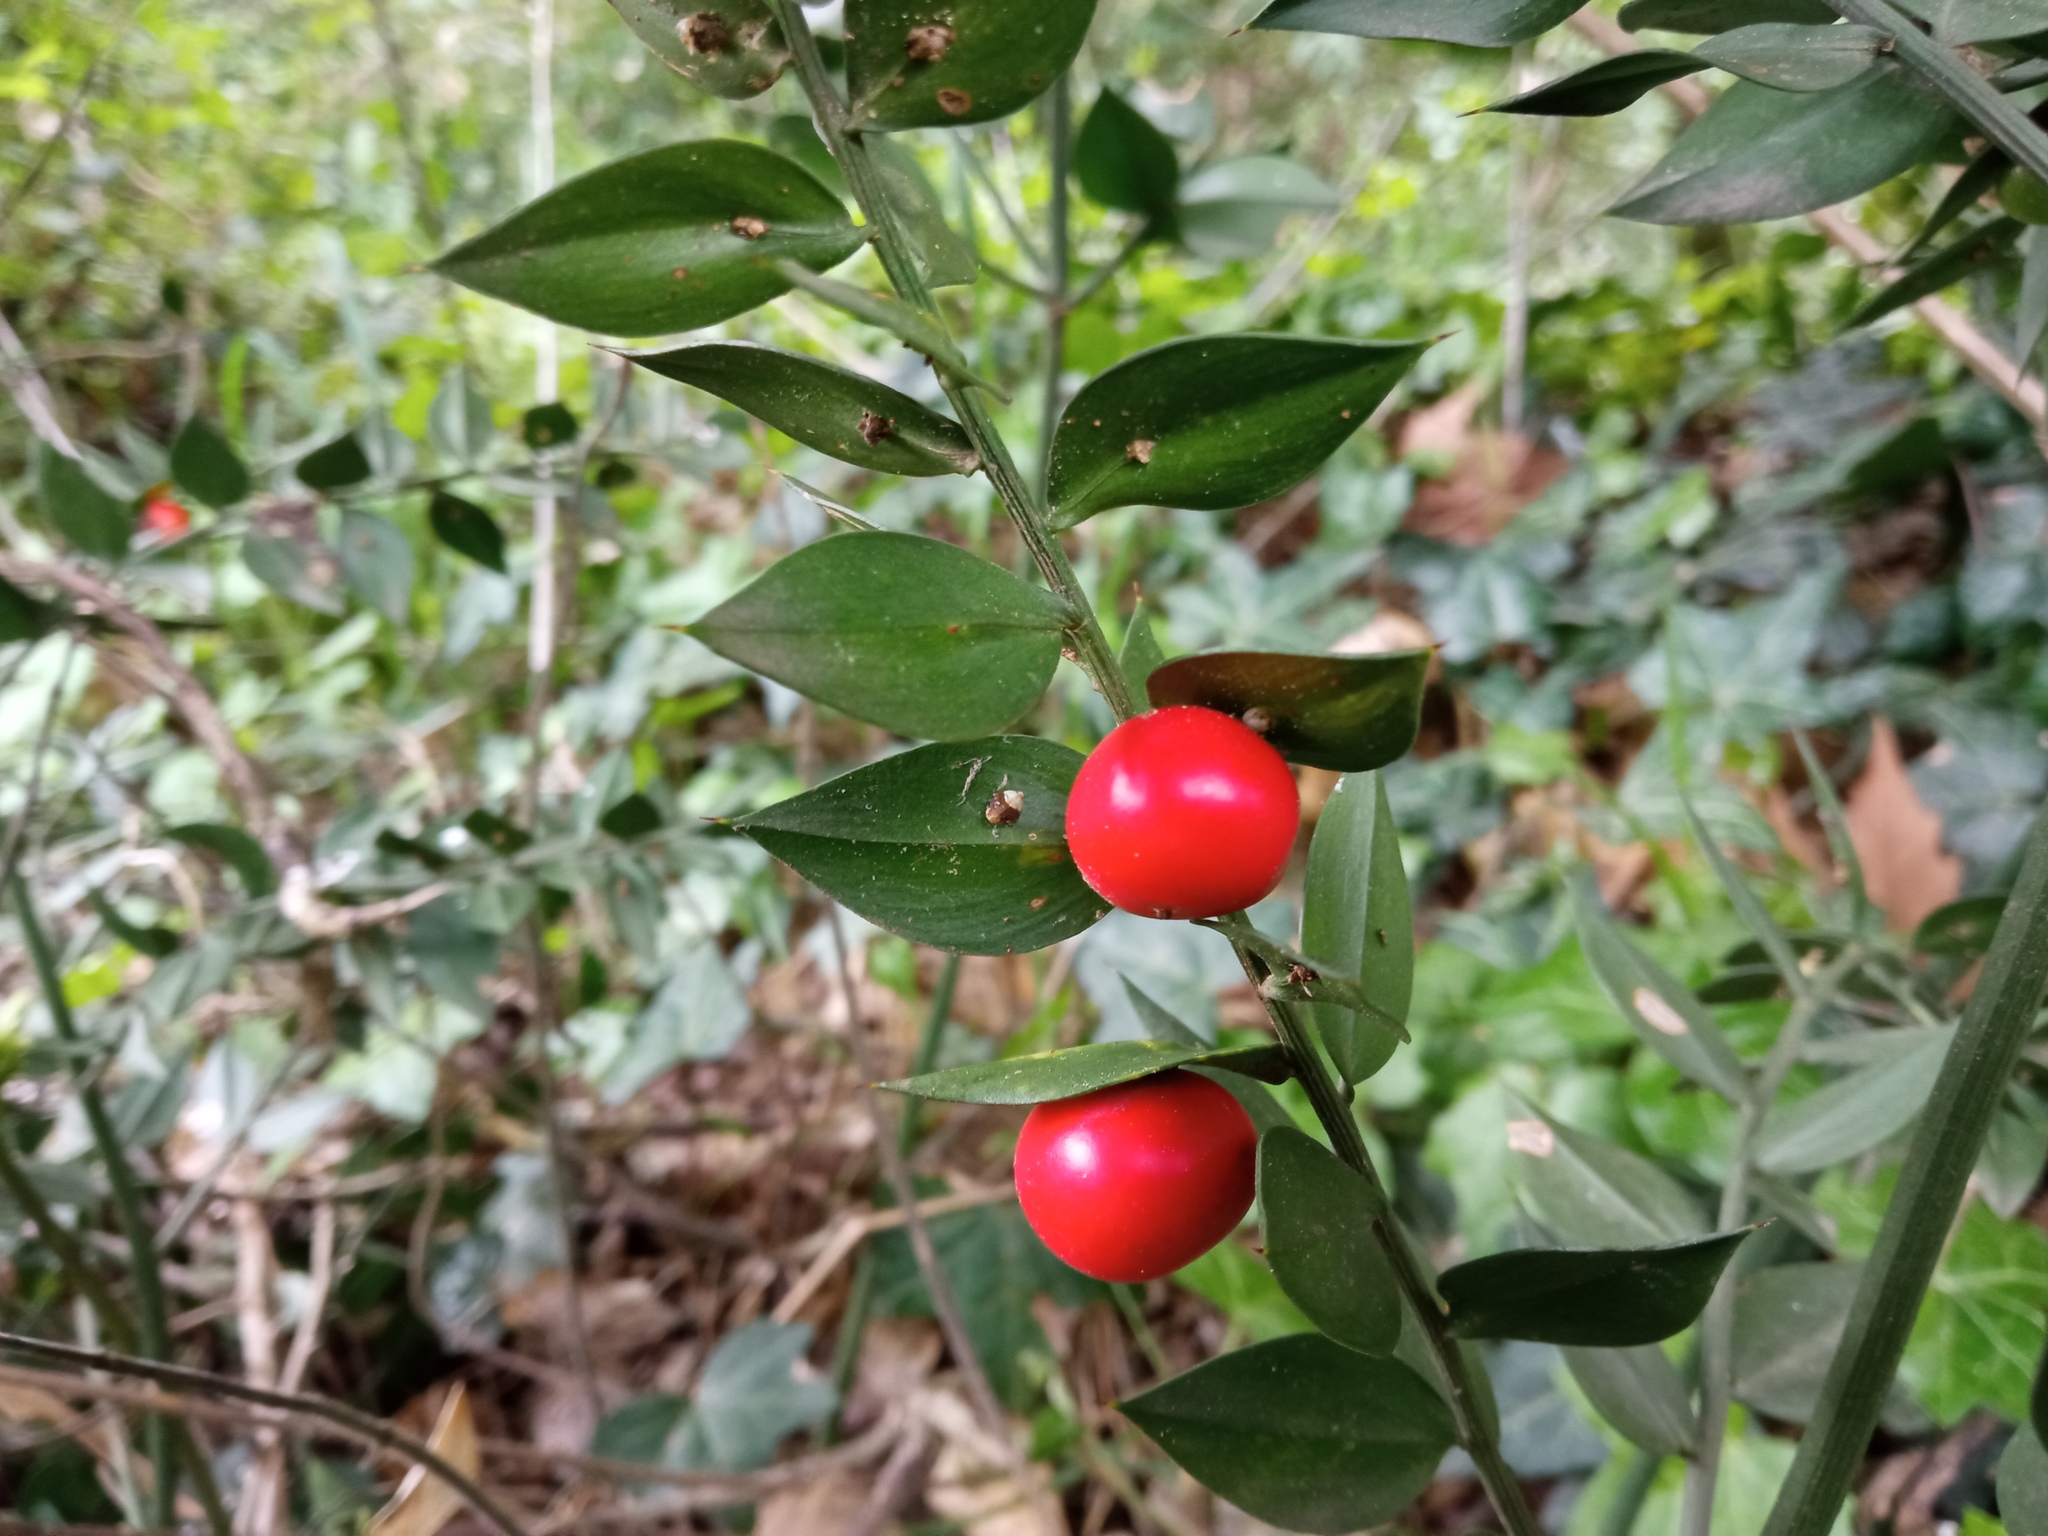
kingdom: Plantae
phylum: Tracheophyta
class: Liliopsida
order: Asparagales
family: Asparagaceae
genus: Ruscus
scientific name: Ruscus aculeatus
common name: Butcher's-broom
